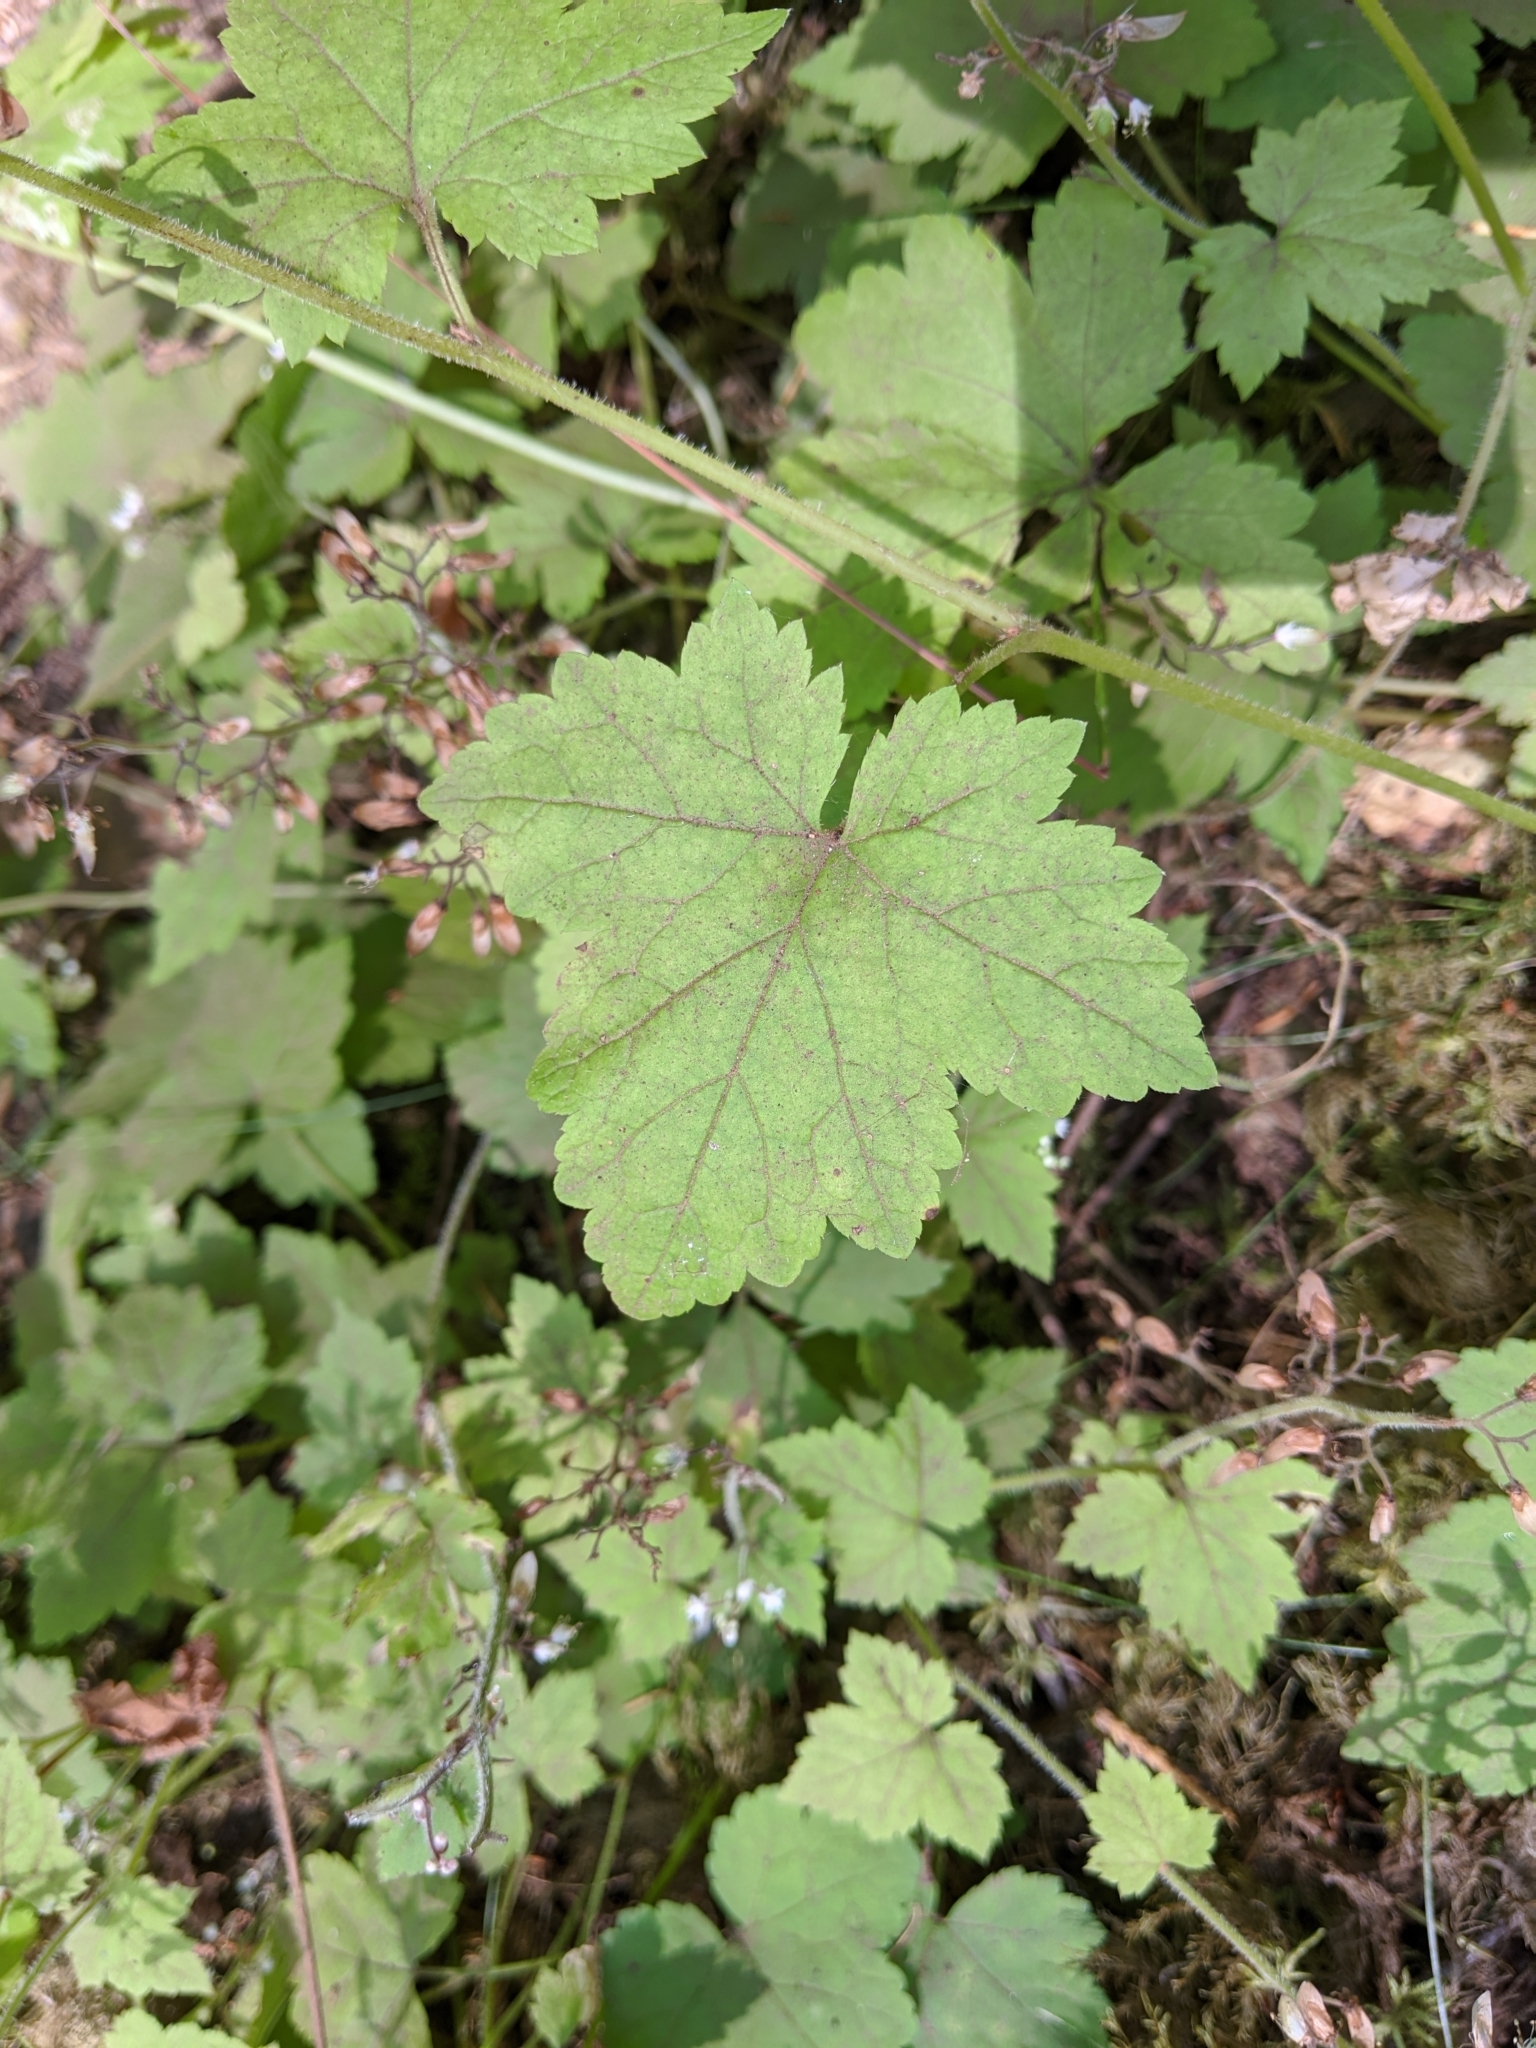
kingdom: Plantae
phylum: Tracheophyta
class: Magnoliopsida
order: Saxifragales
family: Saxifragaceae
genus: Tiarella
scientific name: Tiarella trifoliata
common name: Sugar-scoop
